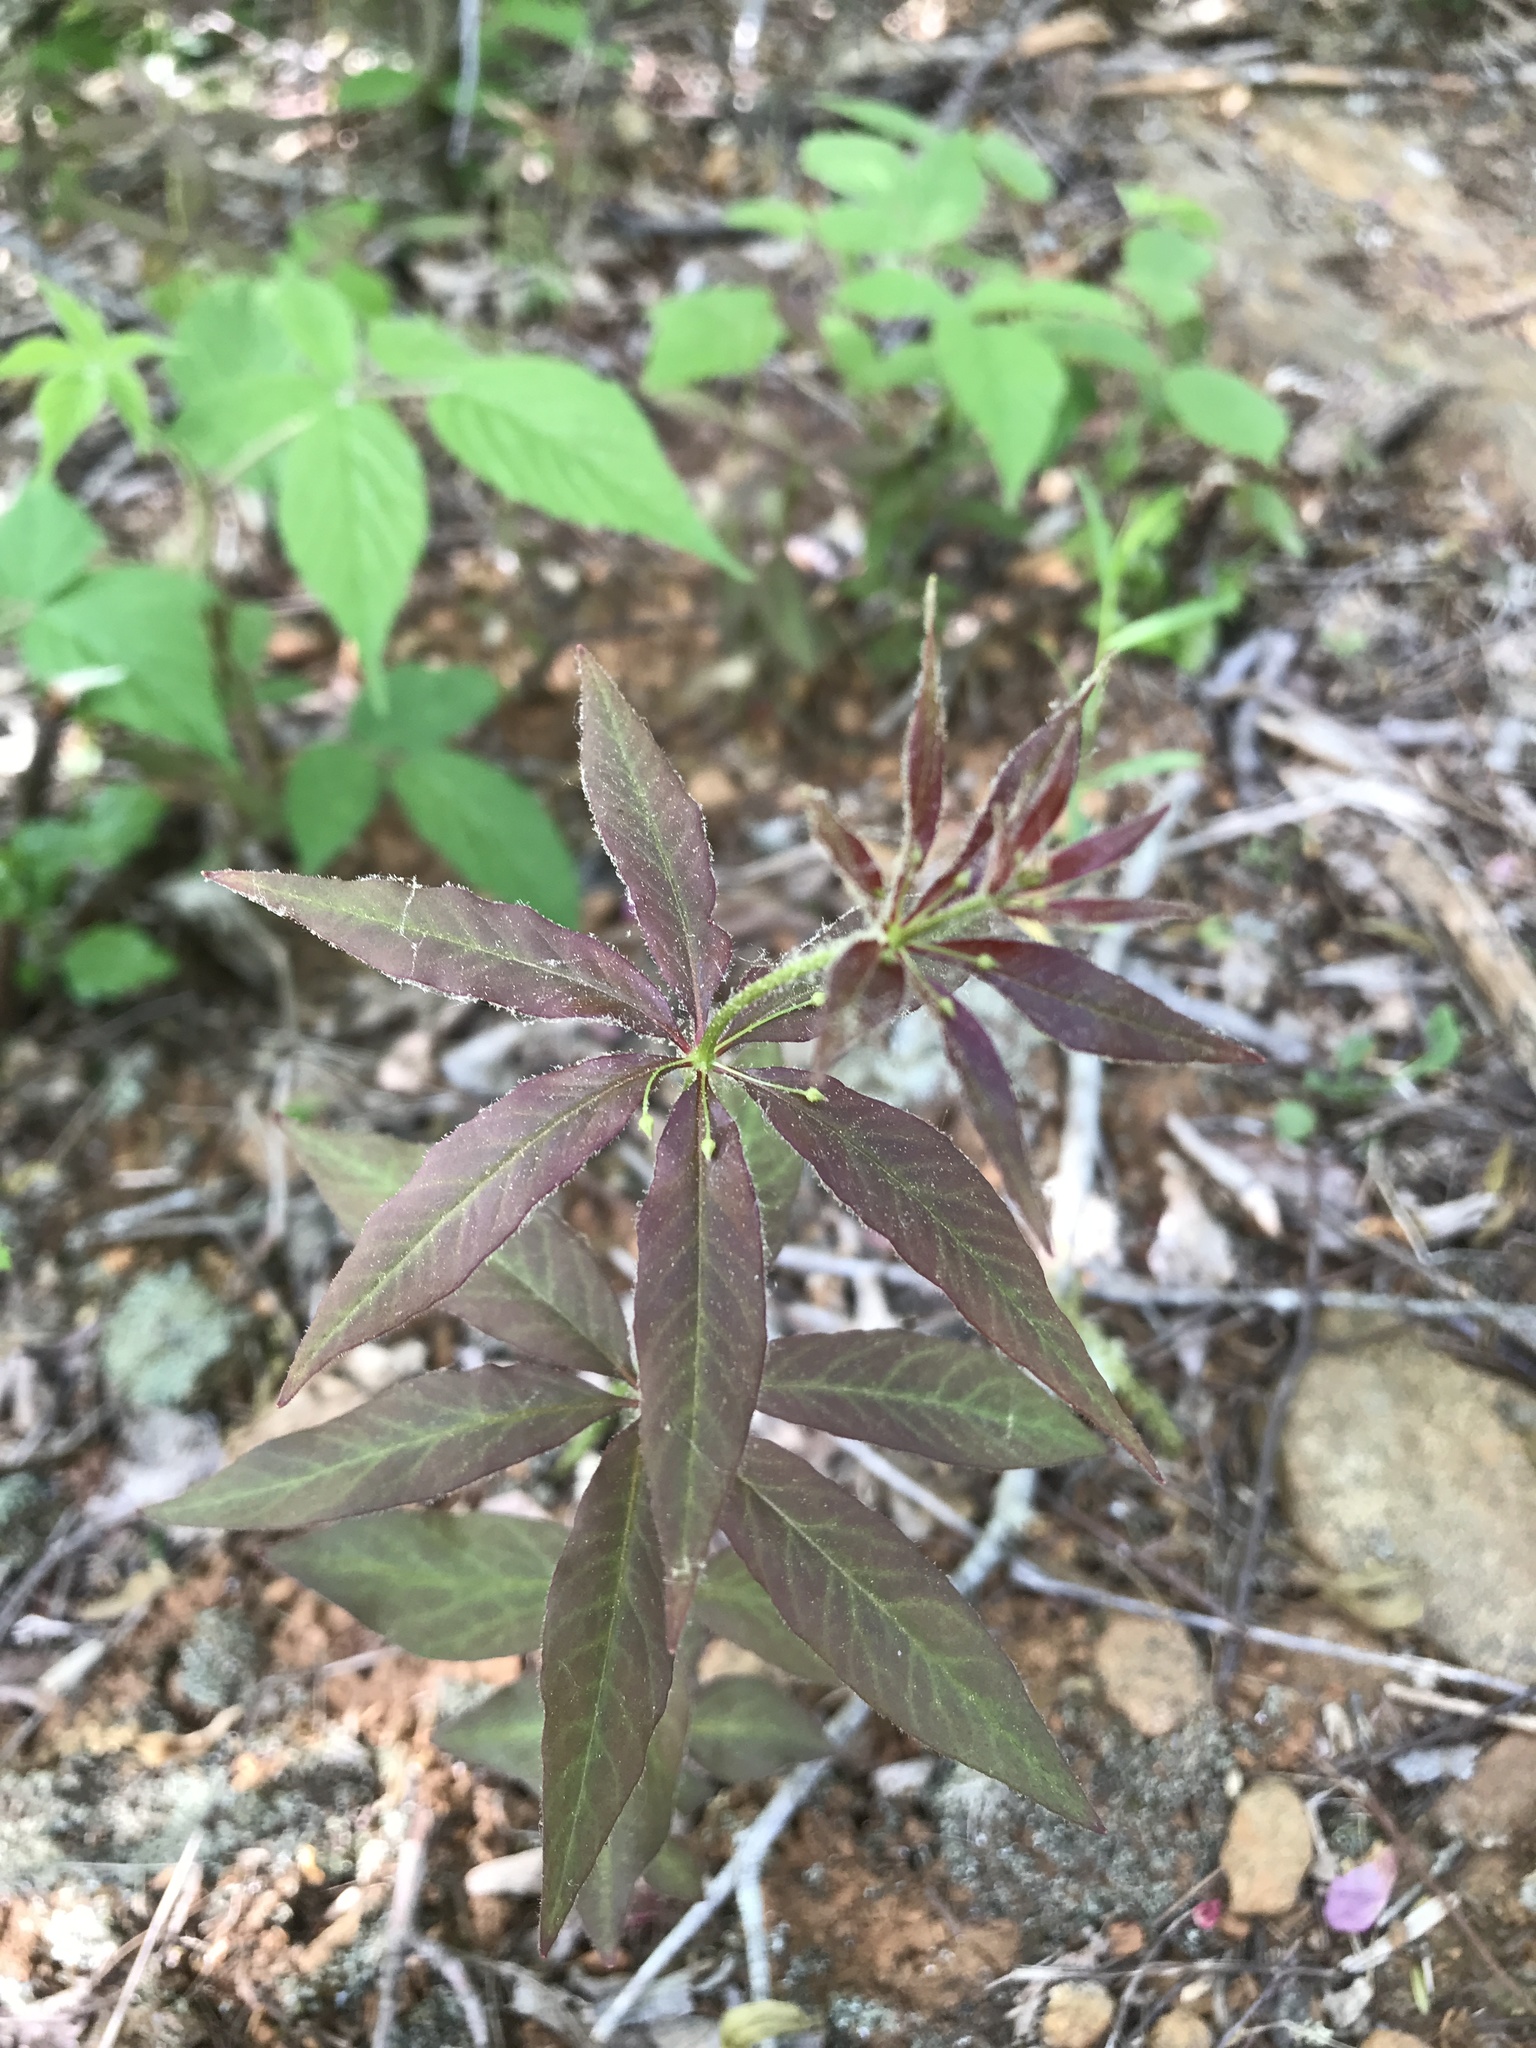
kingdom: Plantae
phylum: Tracheophyta
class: Magnoliopsida
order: Ericales
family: Primulaceae
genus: Lysimachia
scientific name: Lysimachia quadrifolia
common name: Whorled loosestrife
